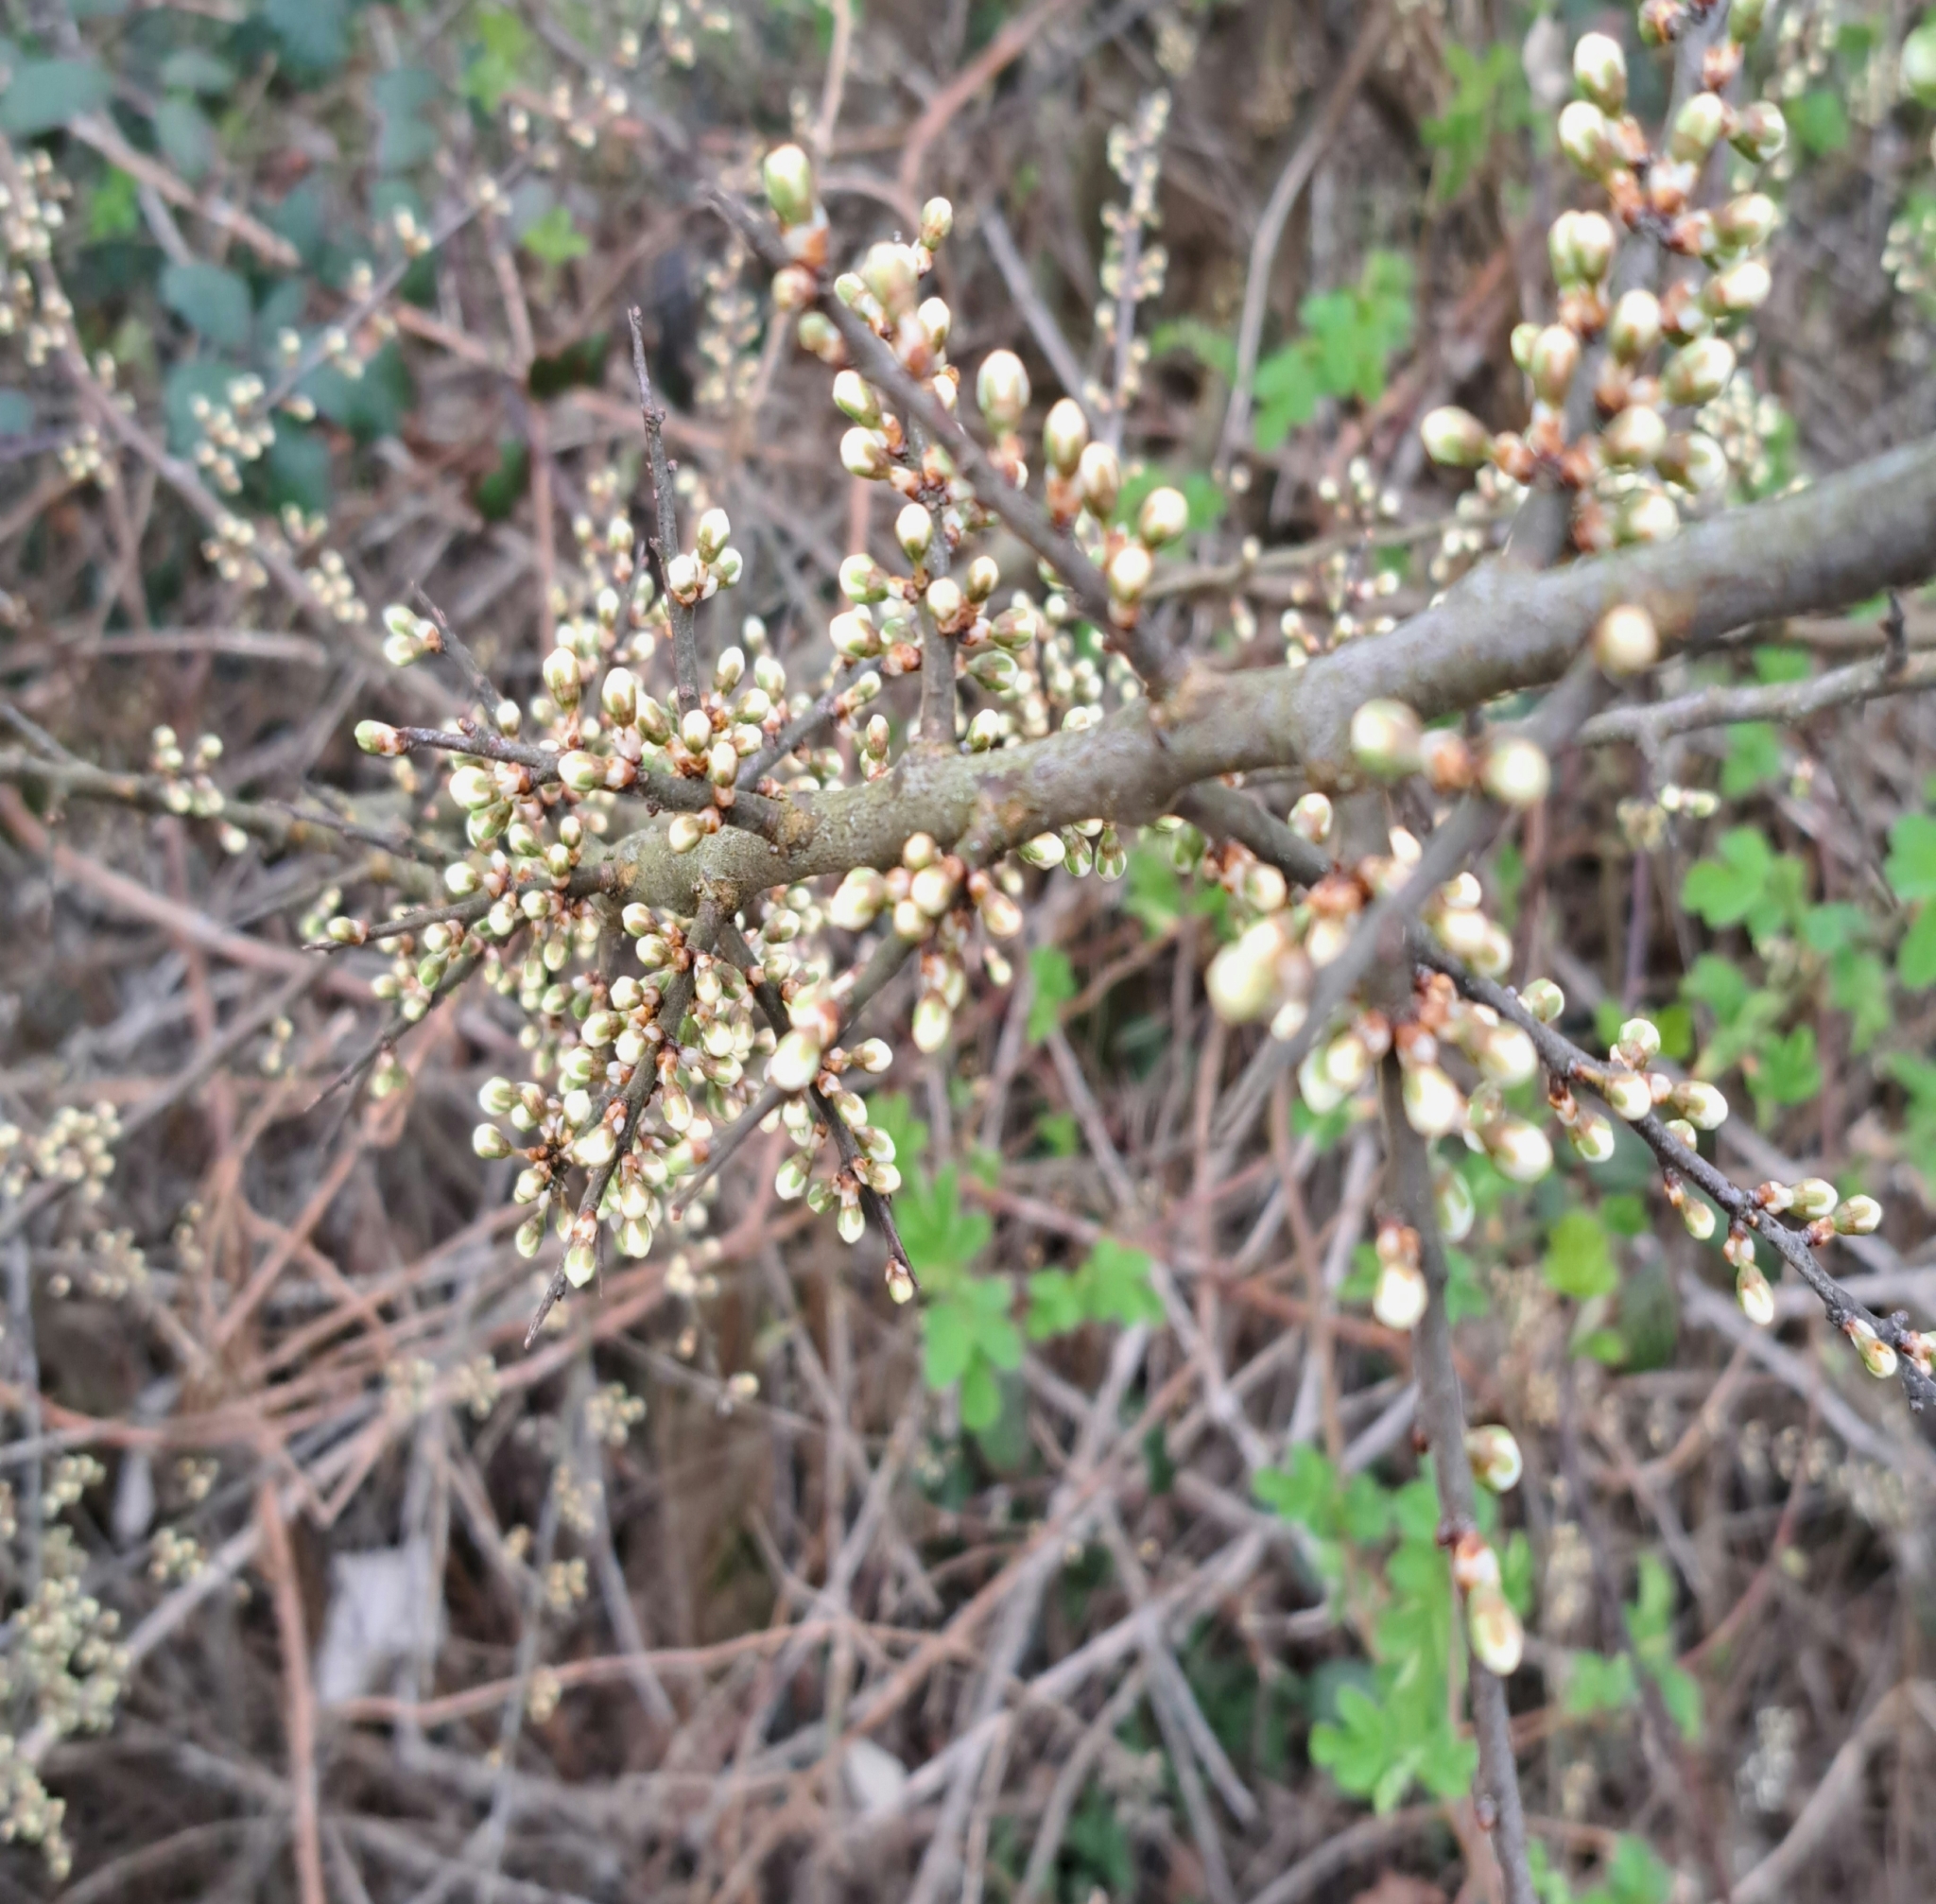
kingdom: Plantae
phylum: Tracheophyta
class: Magnoliopsida
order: Rosales
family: Rosaceae
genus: Prunus
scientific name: Prunus spinosa
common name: Blackthorn
